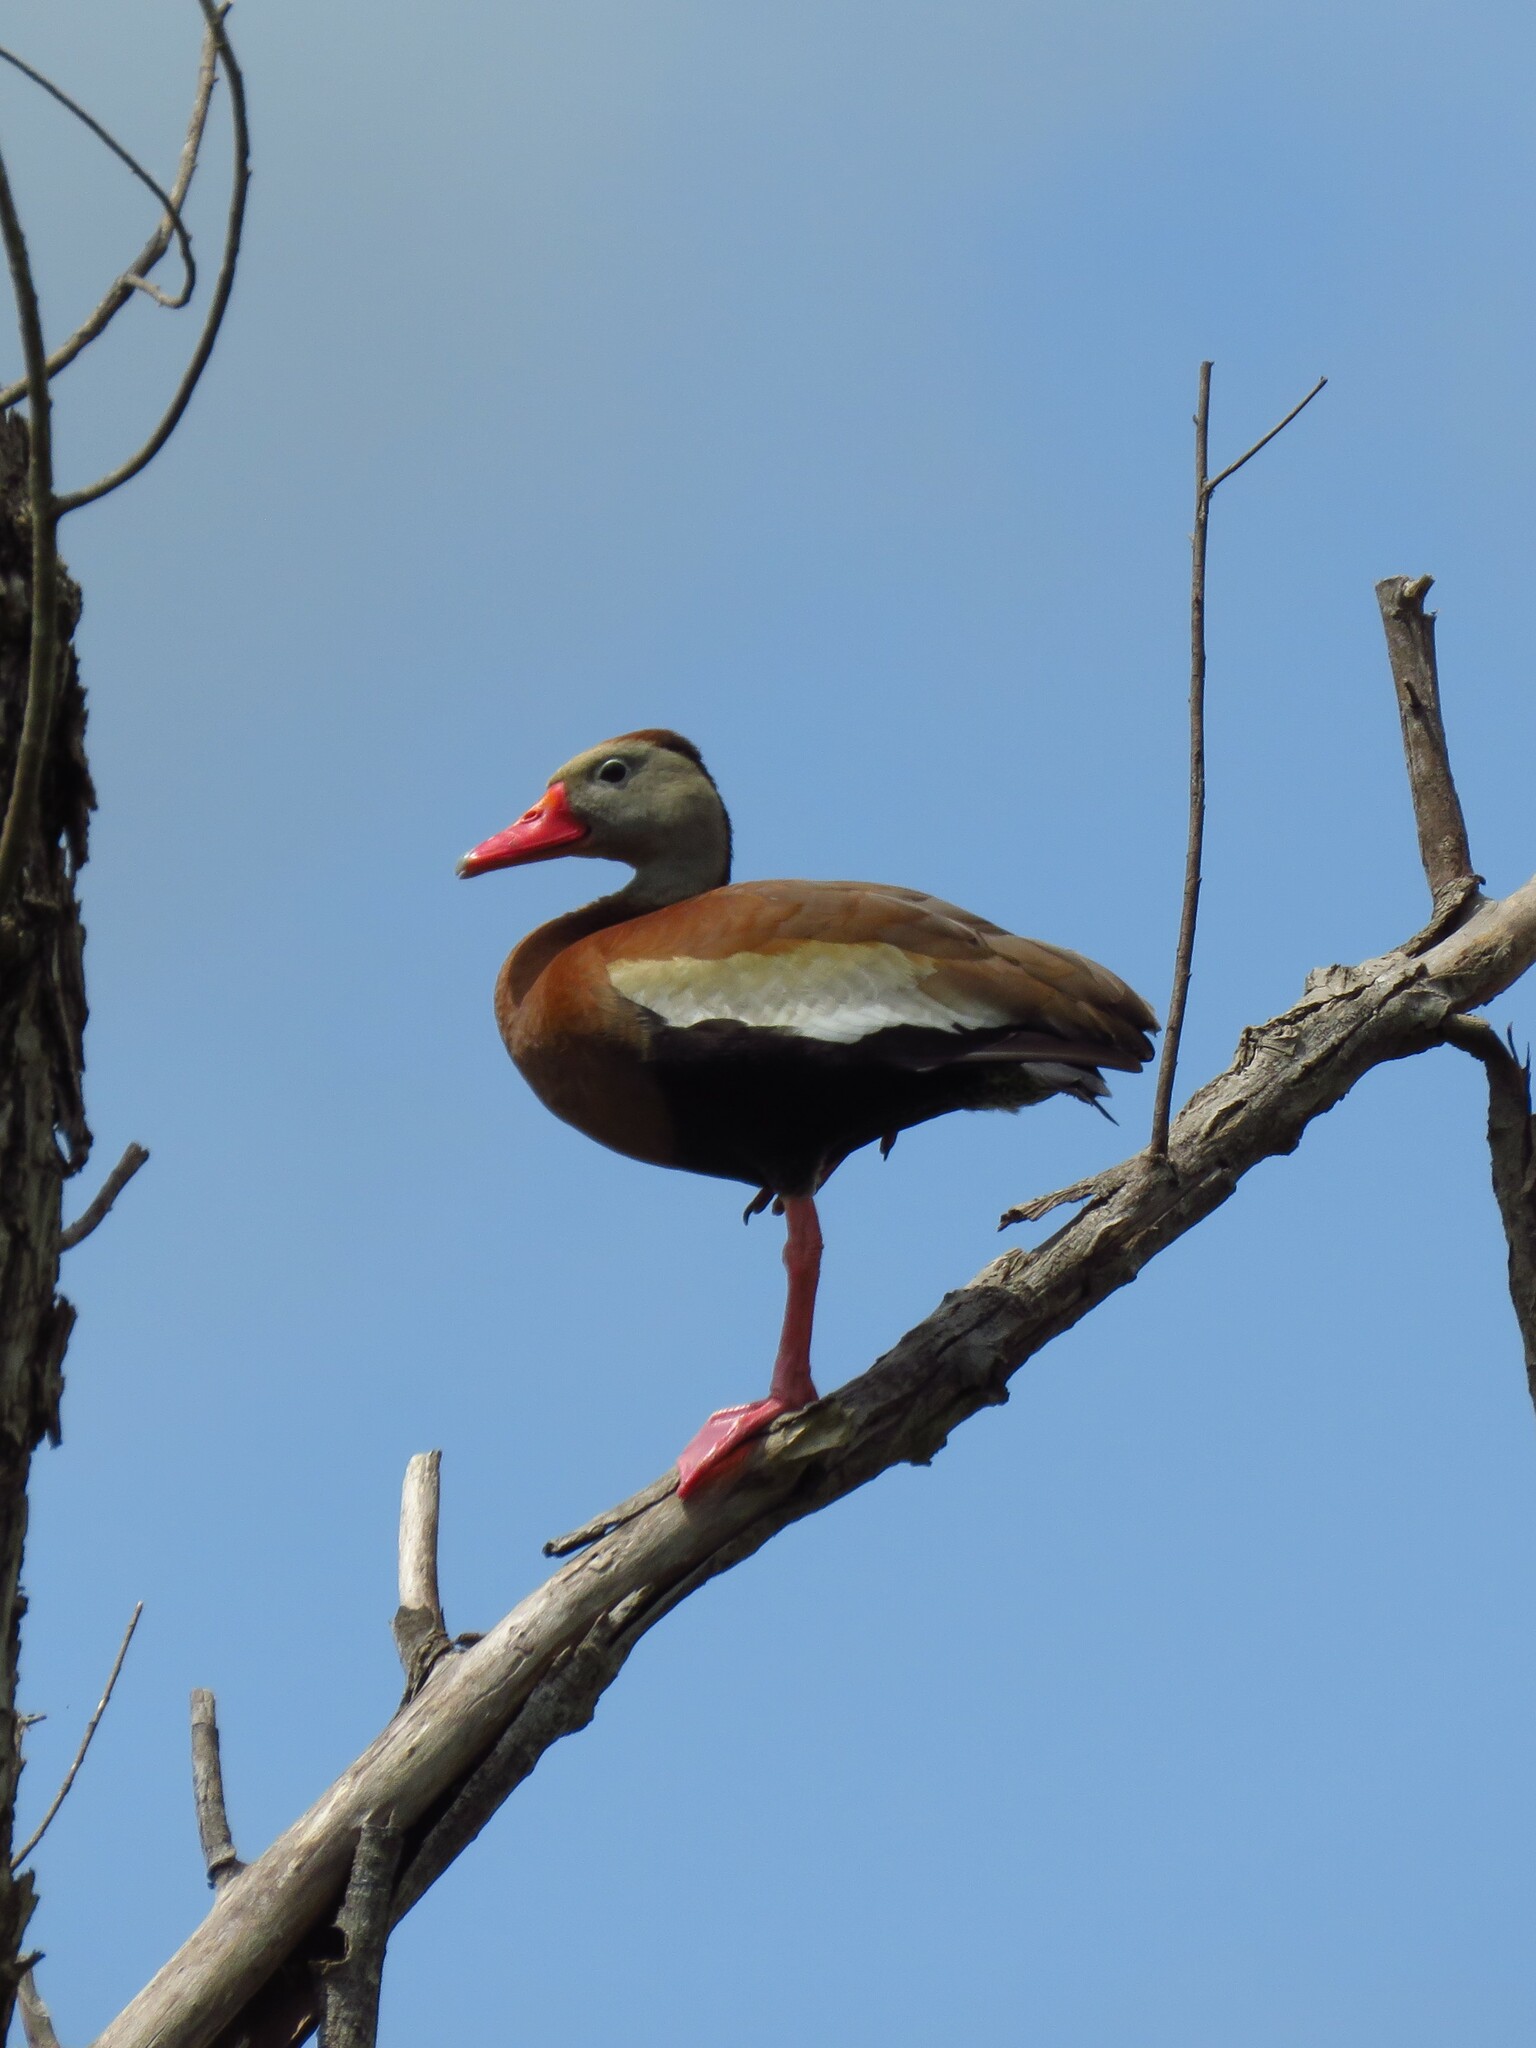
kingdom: Animalia
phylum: Chordata
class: Aves
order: Anseriformes
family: Anatidae
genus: Dendrocygna
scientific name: Dendrocygna autumnalis
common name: Black-bellied whistling duck
